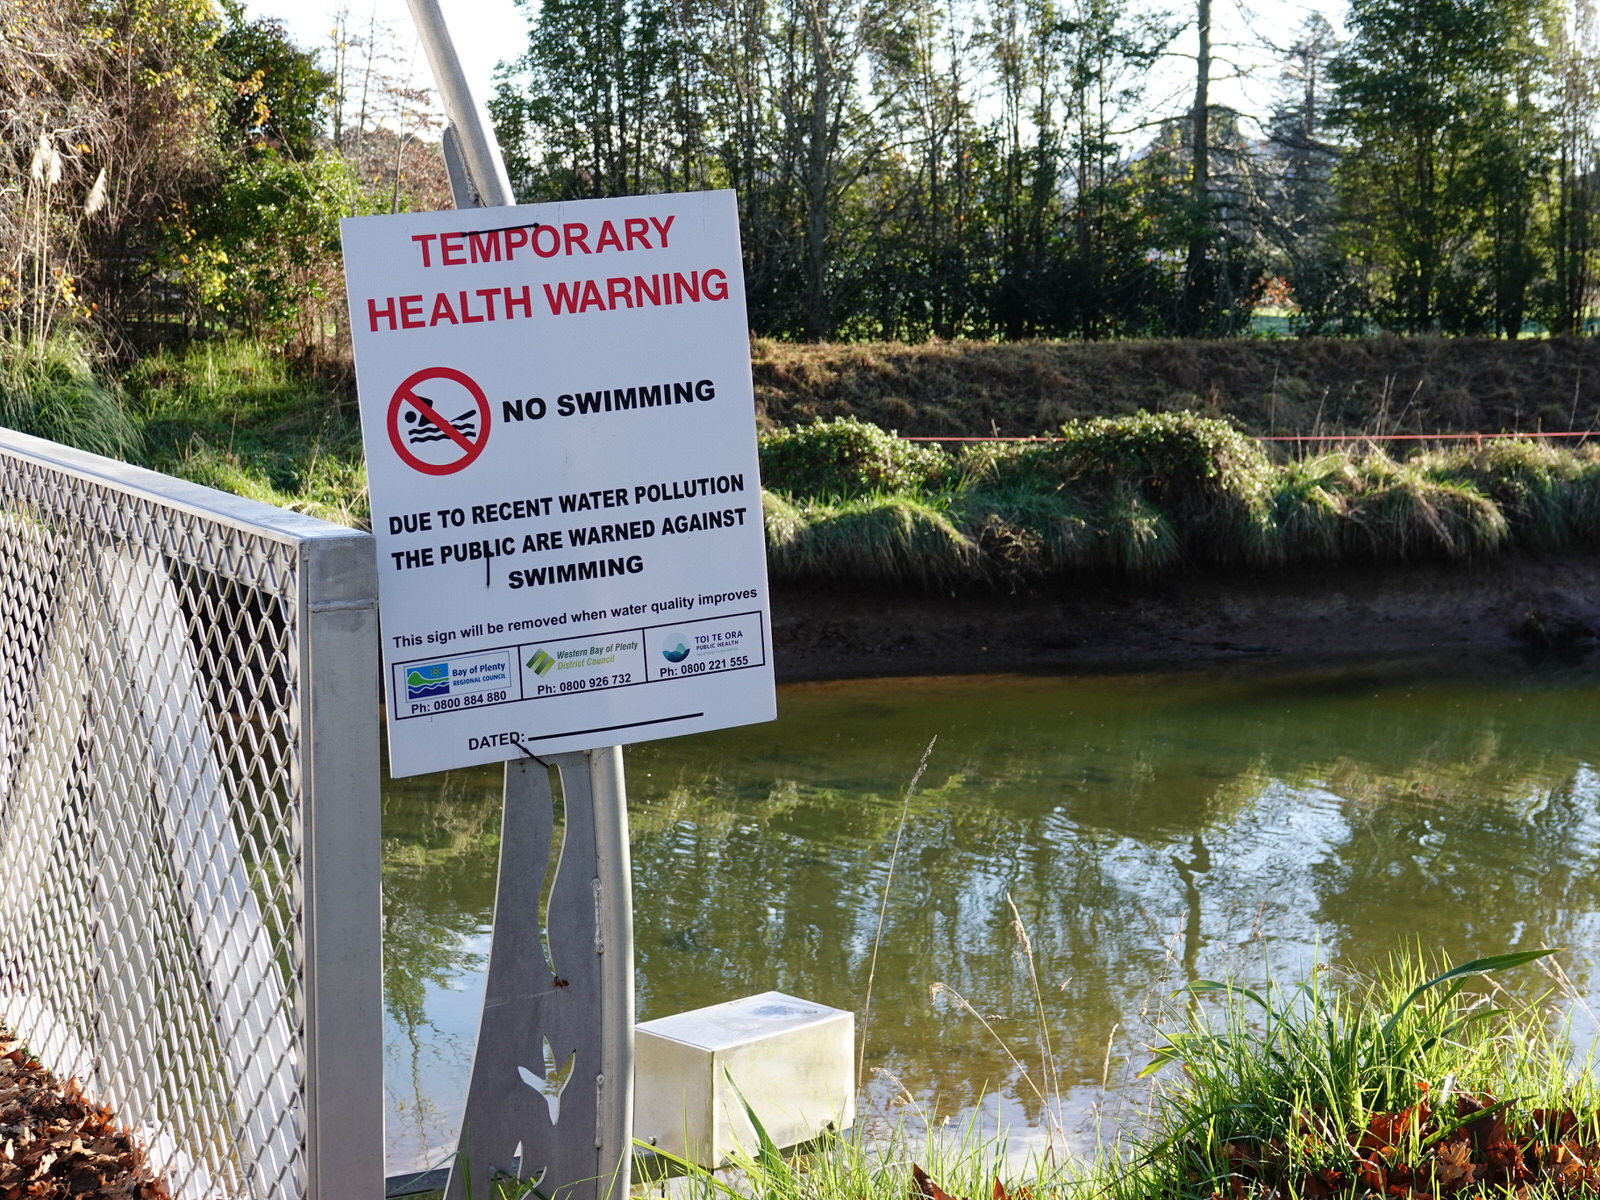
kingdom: Animalia
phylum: Chordata
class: Aves
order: Charadriiformes
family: Laridae
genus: Chroicocephalus
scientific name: Chroicocephalus novaehollandiae
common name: Silver gull
